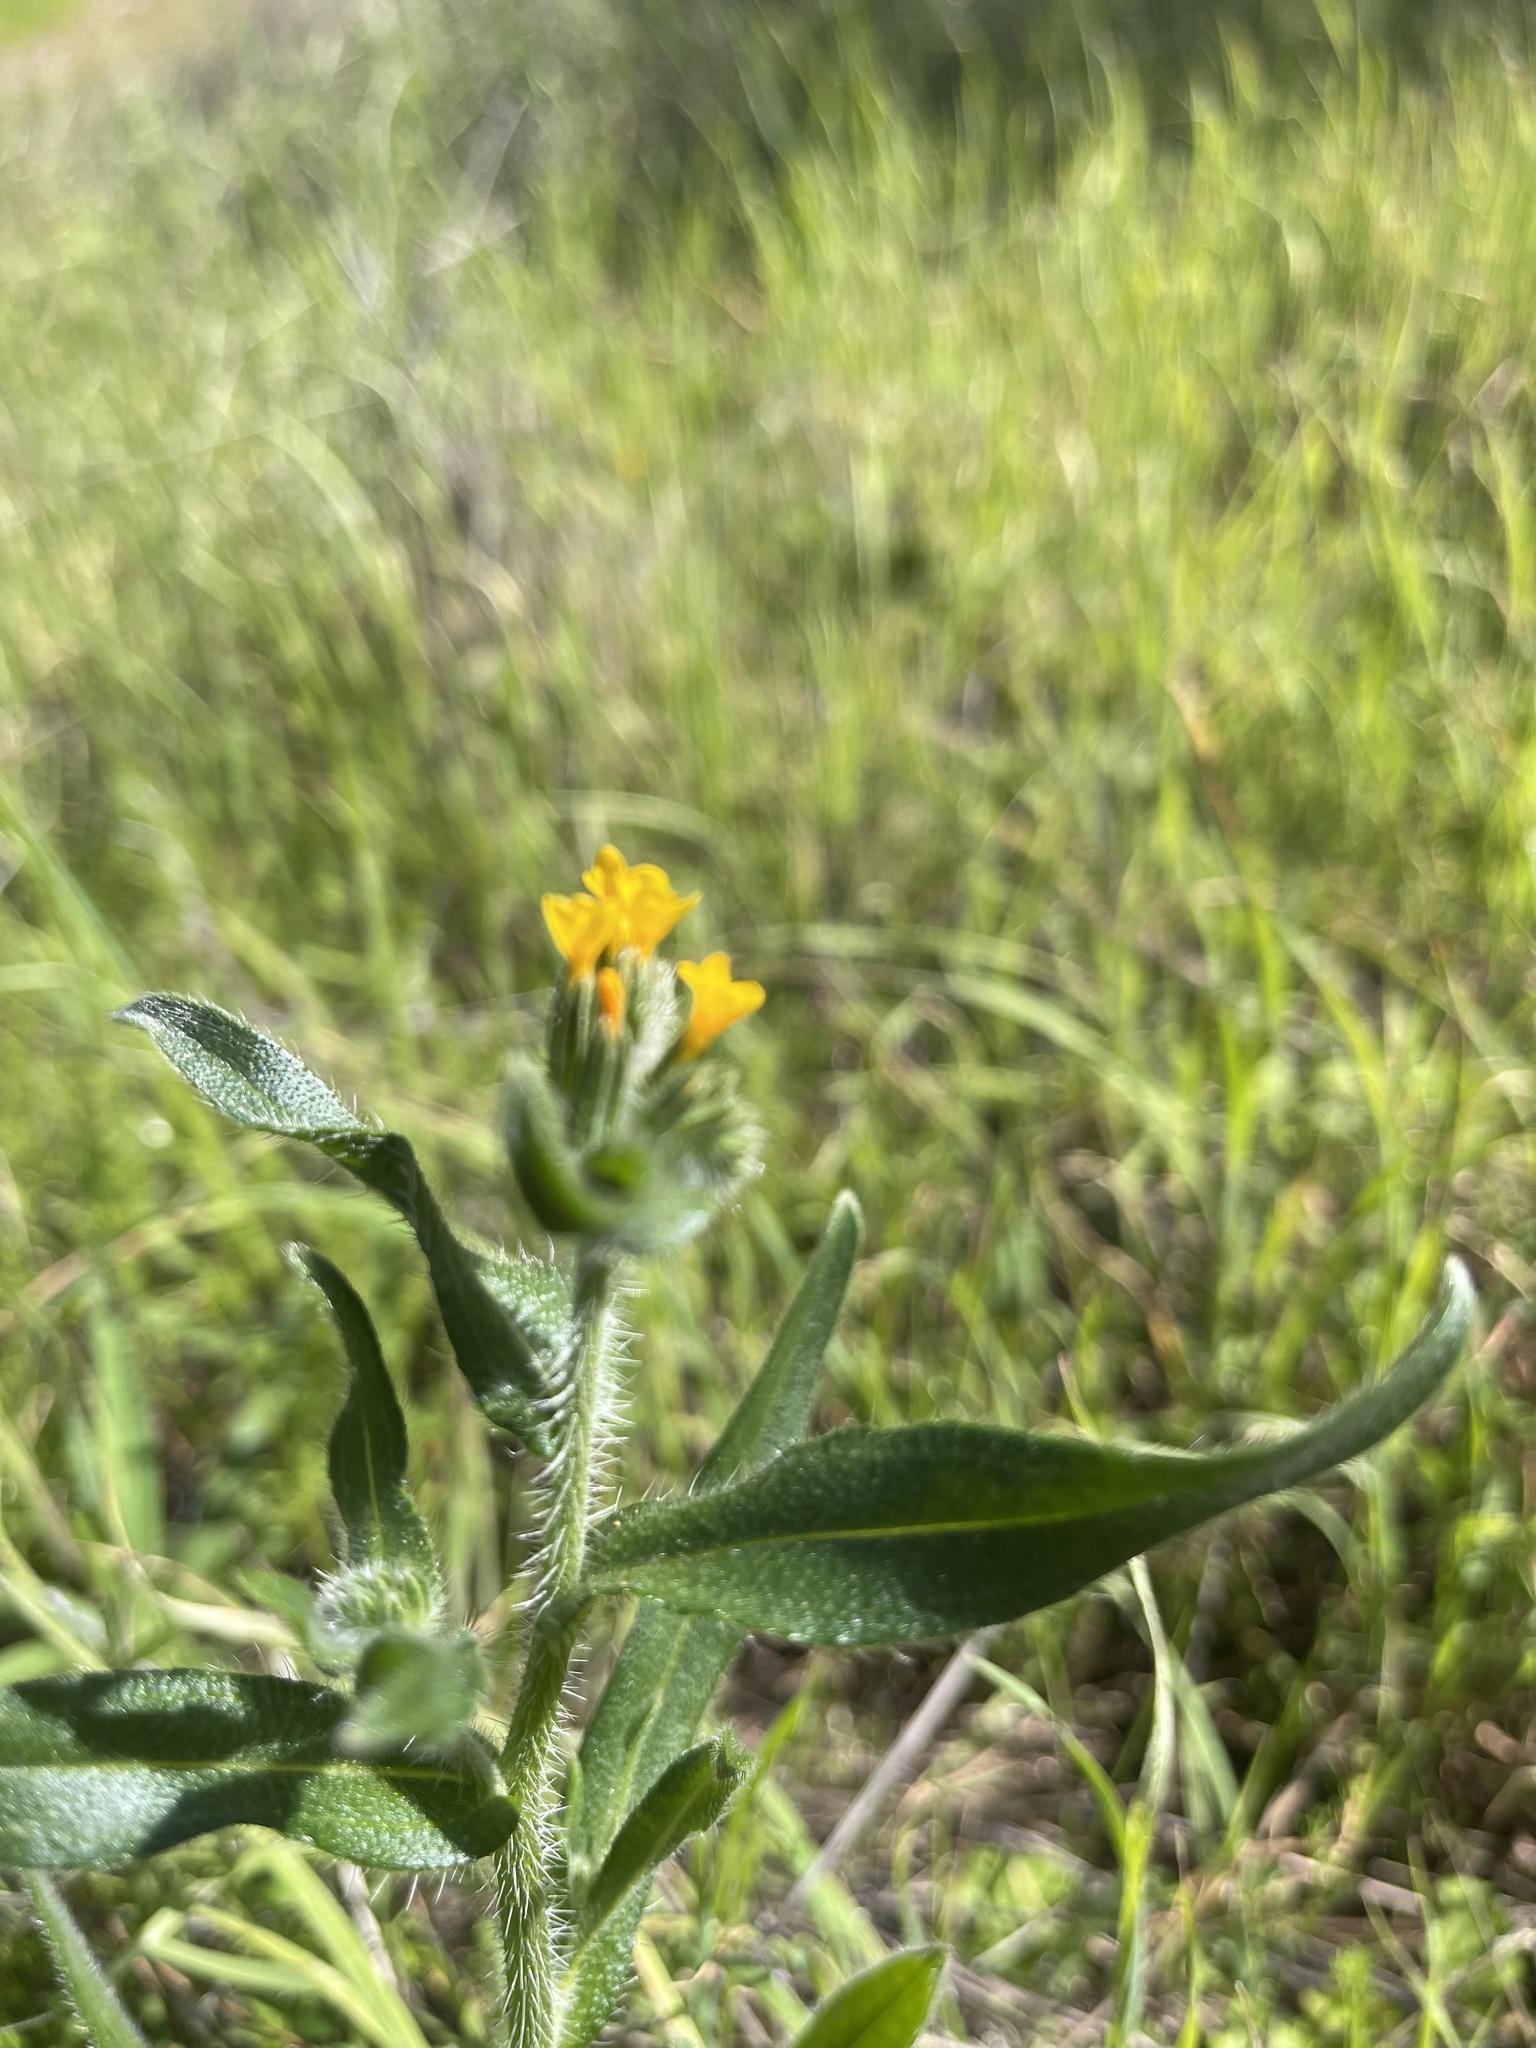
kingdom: Plantae
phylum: Tracheophyta
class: Magnoliopsida
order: Boraginales
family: Boraginaceae
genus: Amsinckia
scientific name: Amsinckia menziesii
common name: Menzies' fiddleneck
